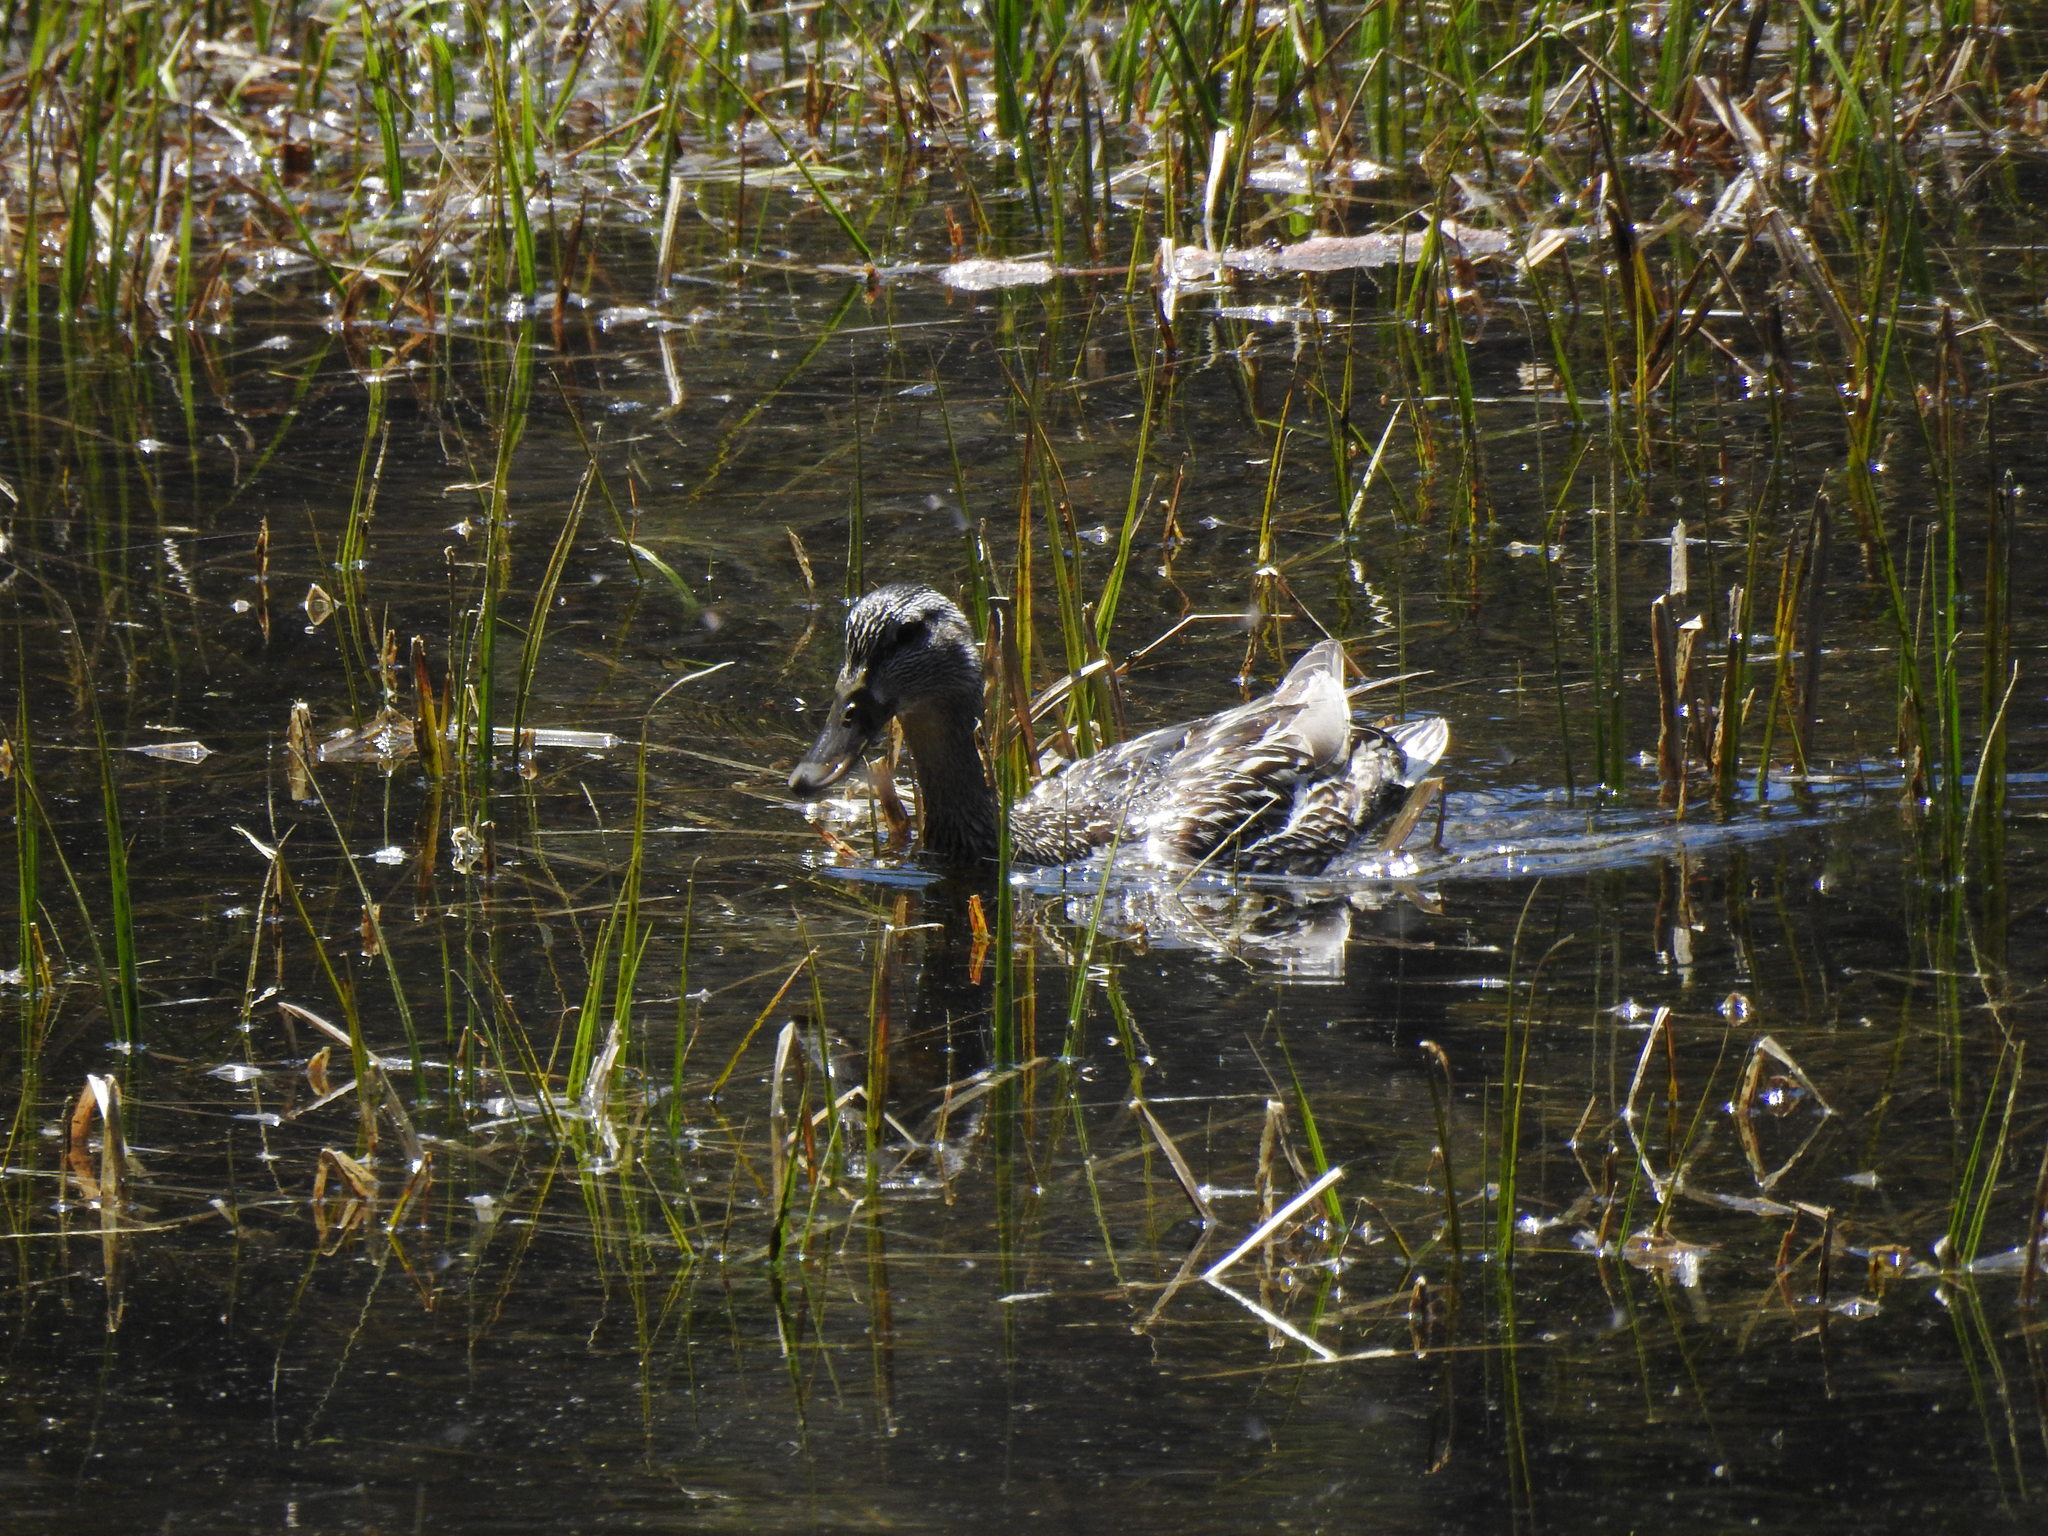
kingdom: Animalia
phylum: Chordata
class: Aves
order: Anseriformes
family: Anatidae
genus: Anas
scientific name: Anas platyrhynchos
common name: Mallard
